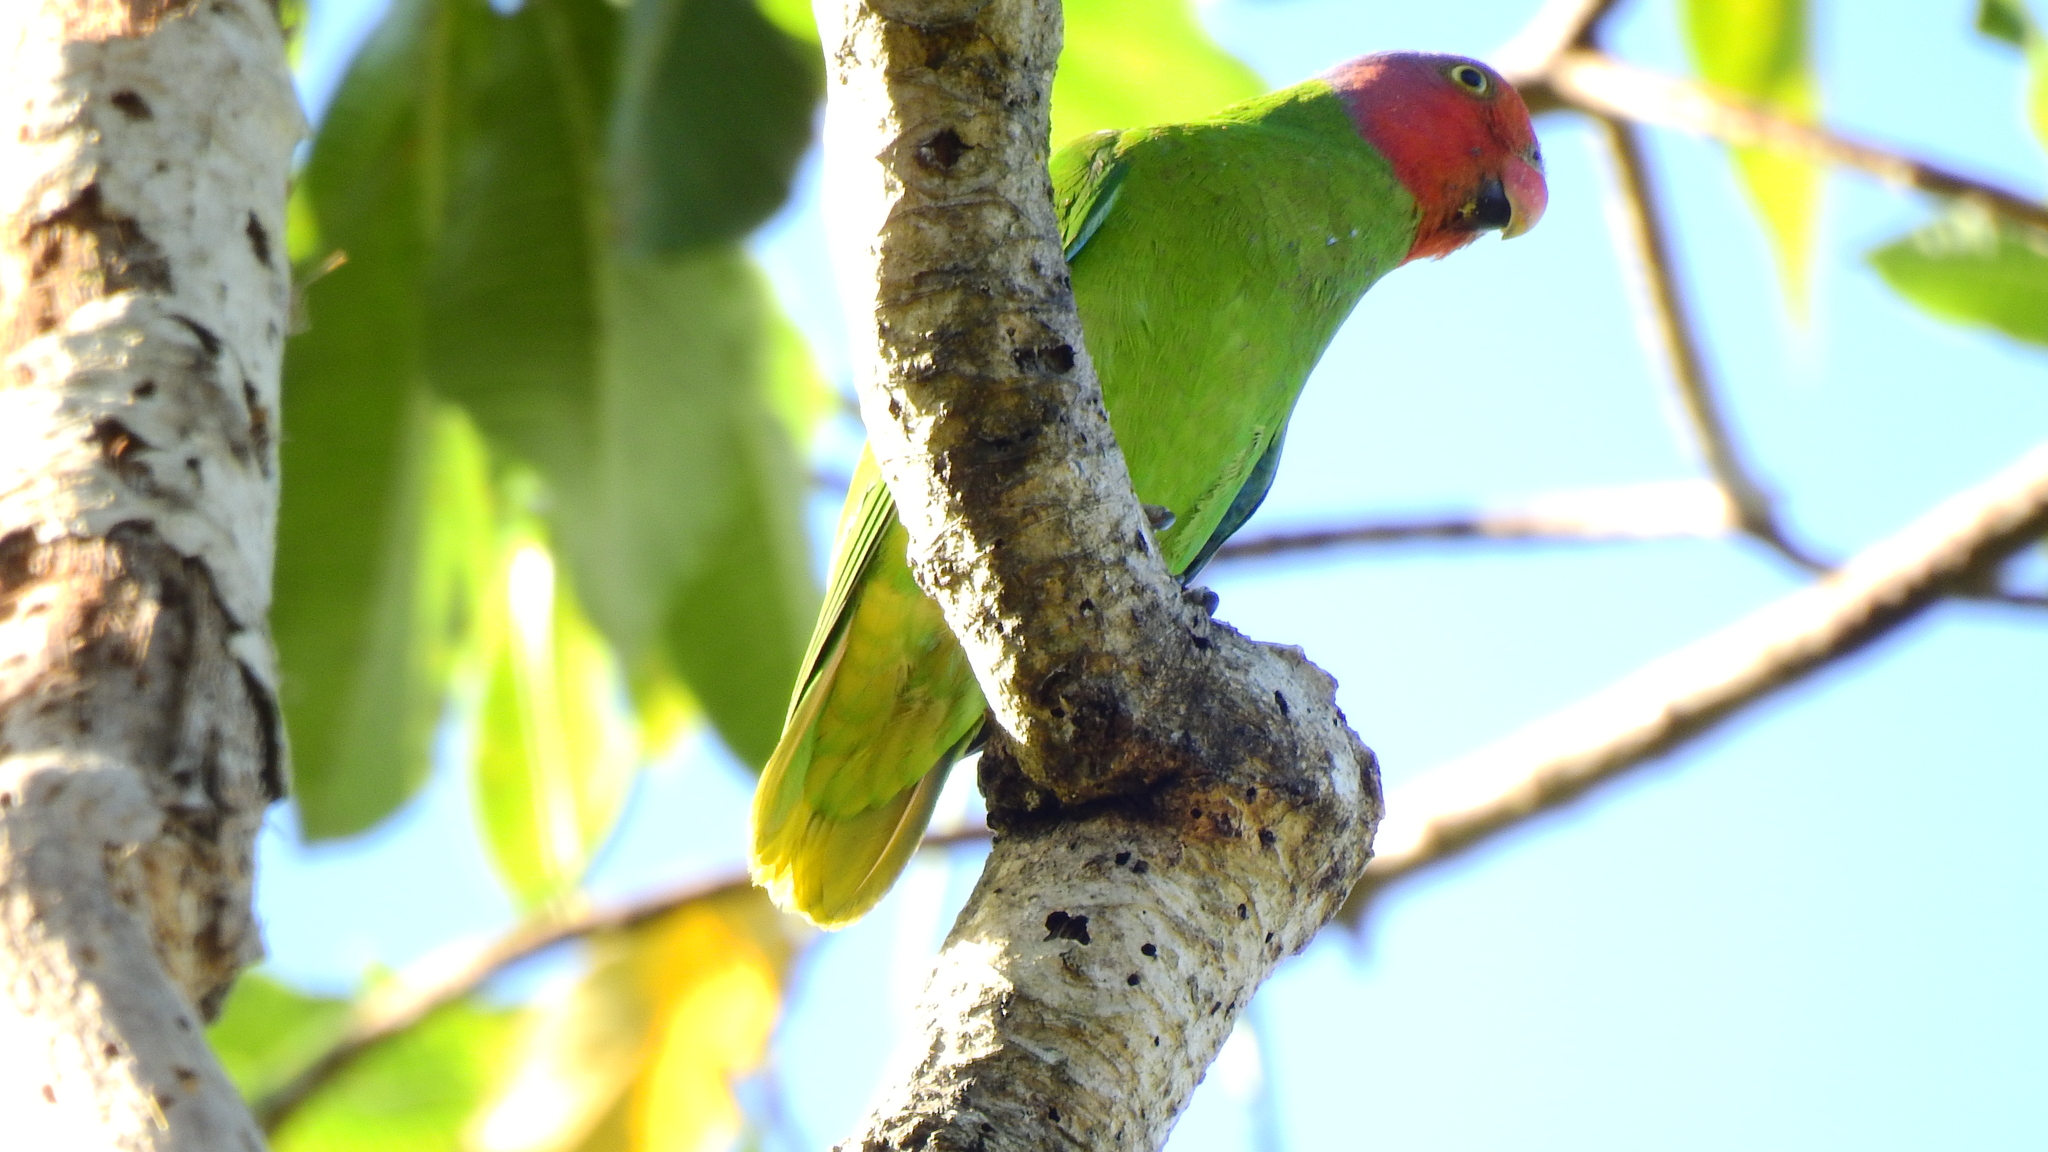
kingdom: Animalia
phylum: Chordata
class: Aves
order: Psittaciformes
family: Psittacidae
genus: Geoffroyus
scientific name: Geoffroyus geoffroyi
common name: Red-cheeked parrot
